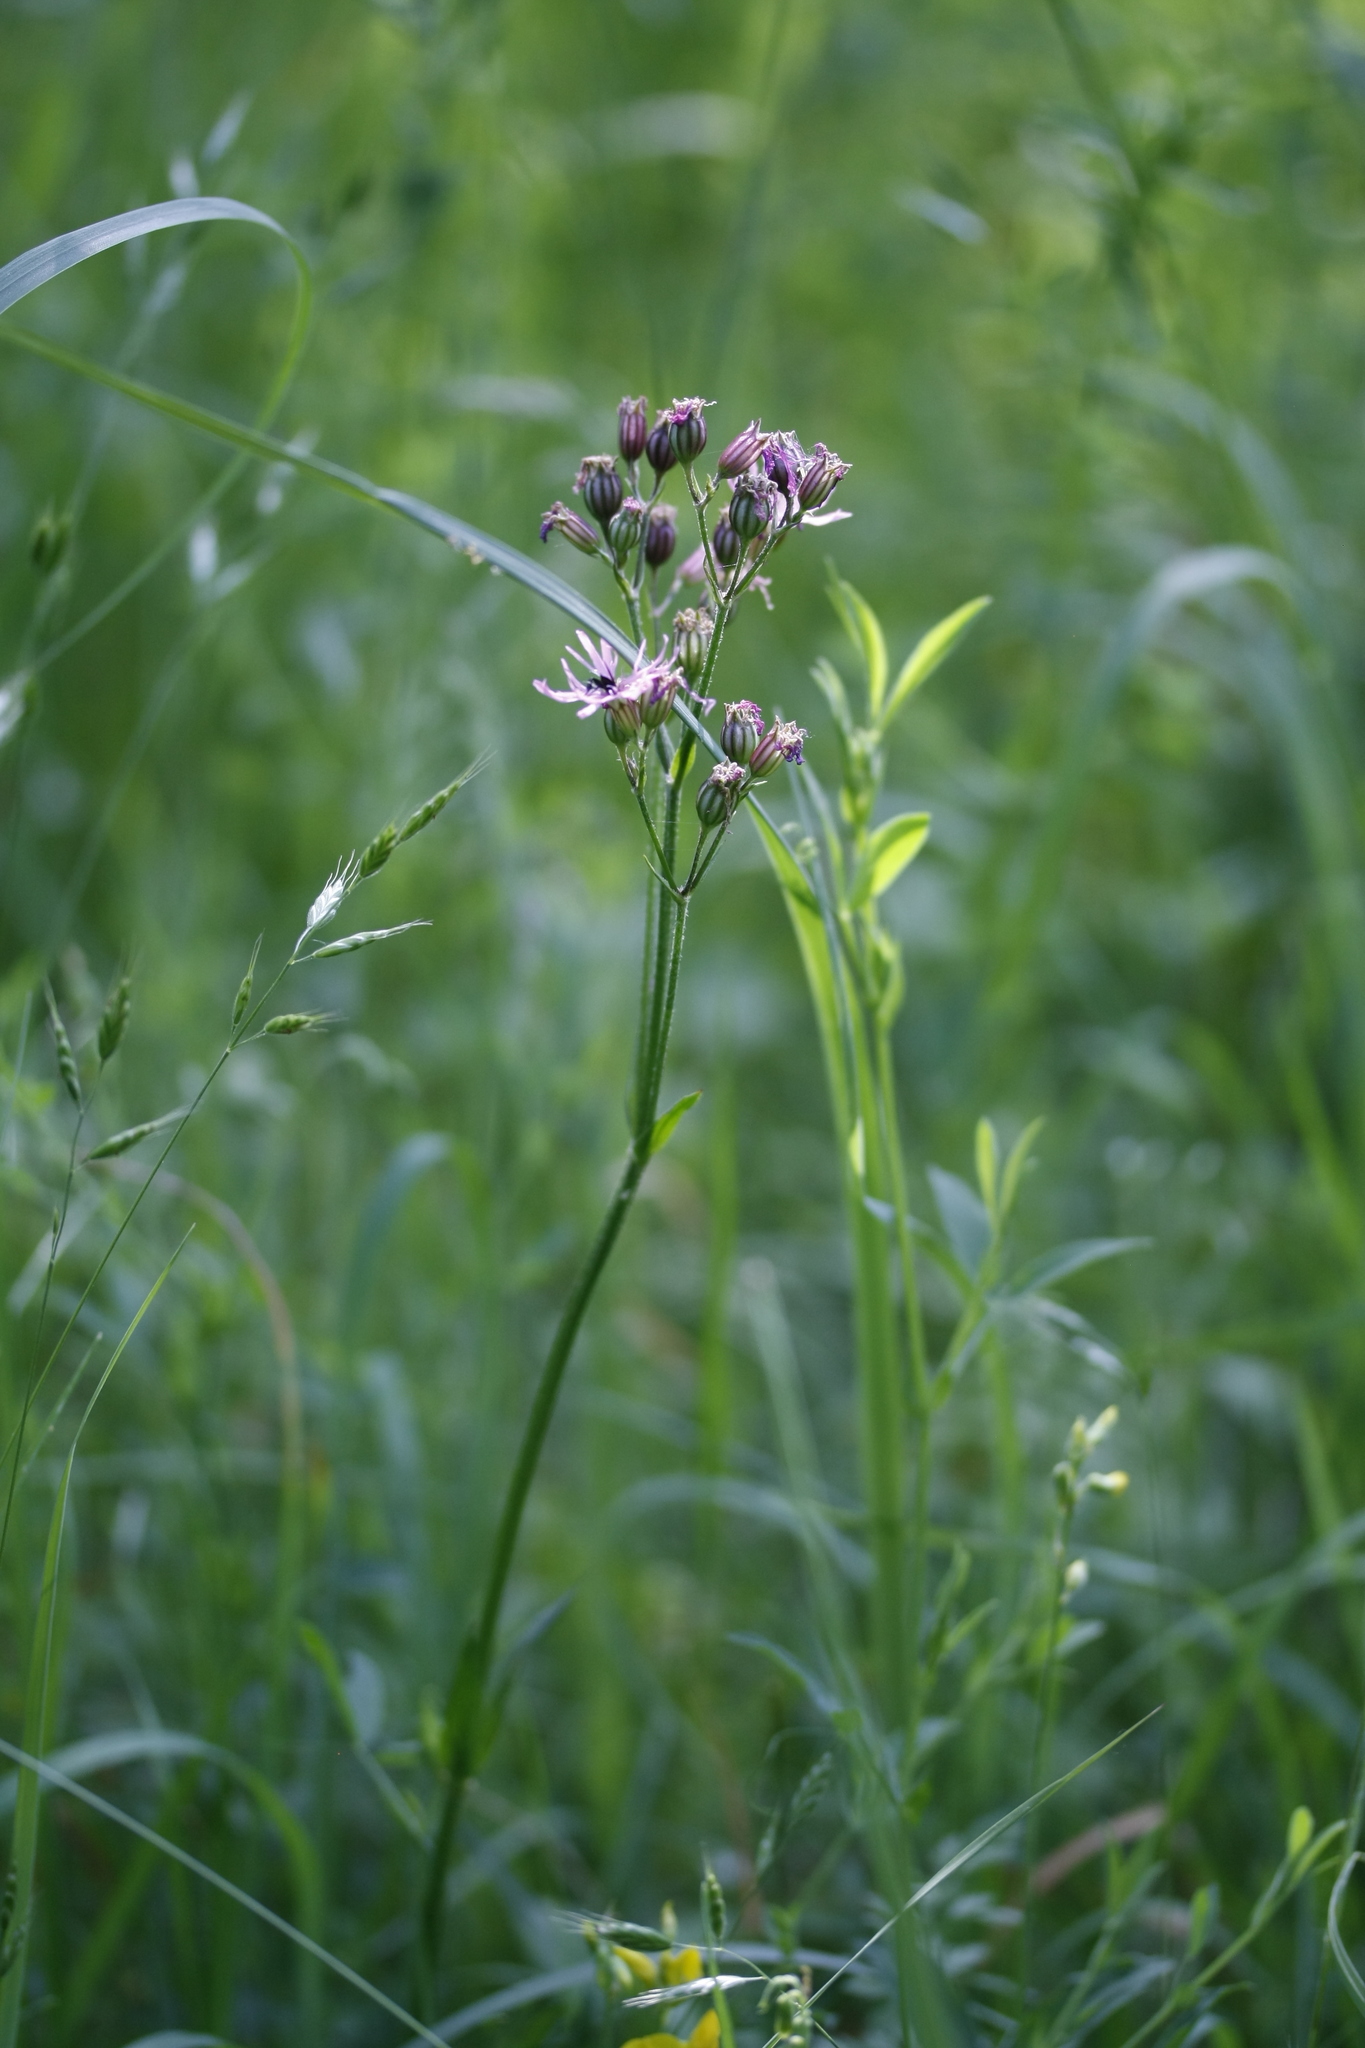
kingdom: Plantae
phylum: Tracheophyta
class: Magnoliopsida
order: Caryophyllales
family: Caryophyllaceae
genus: Silene
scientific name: Silene flos-cuculi
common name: Ragged-robin
